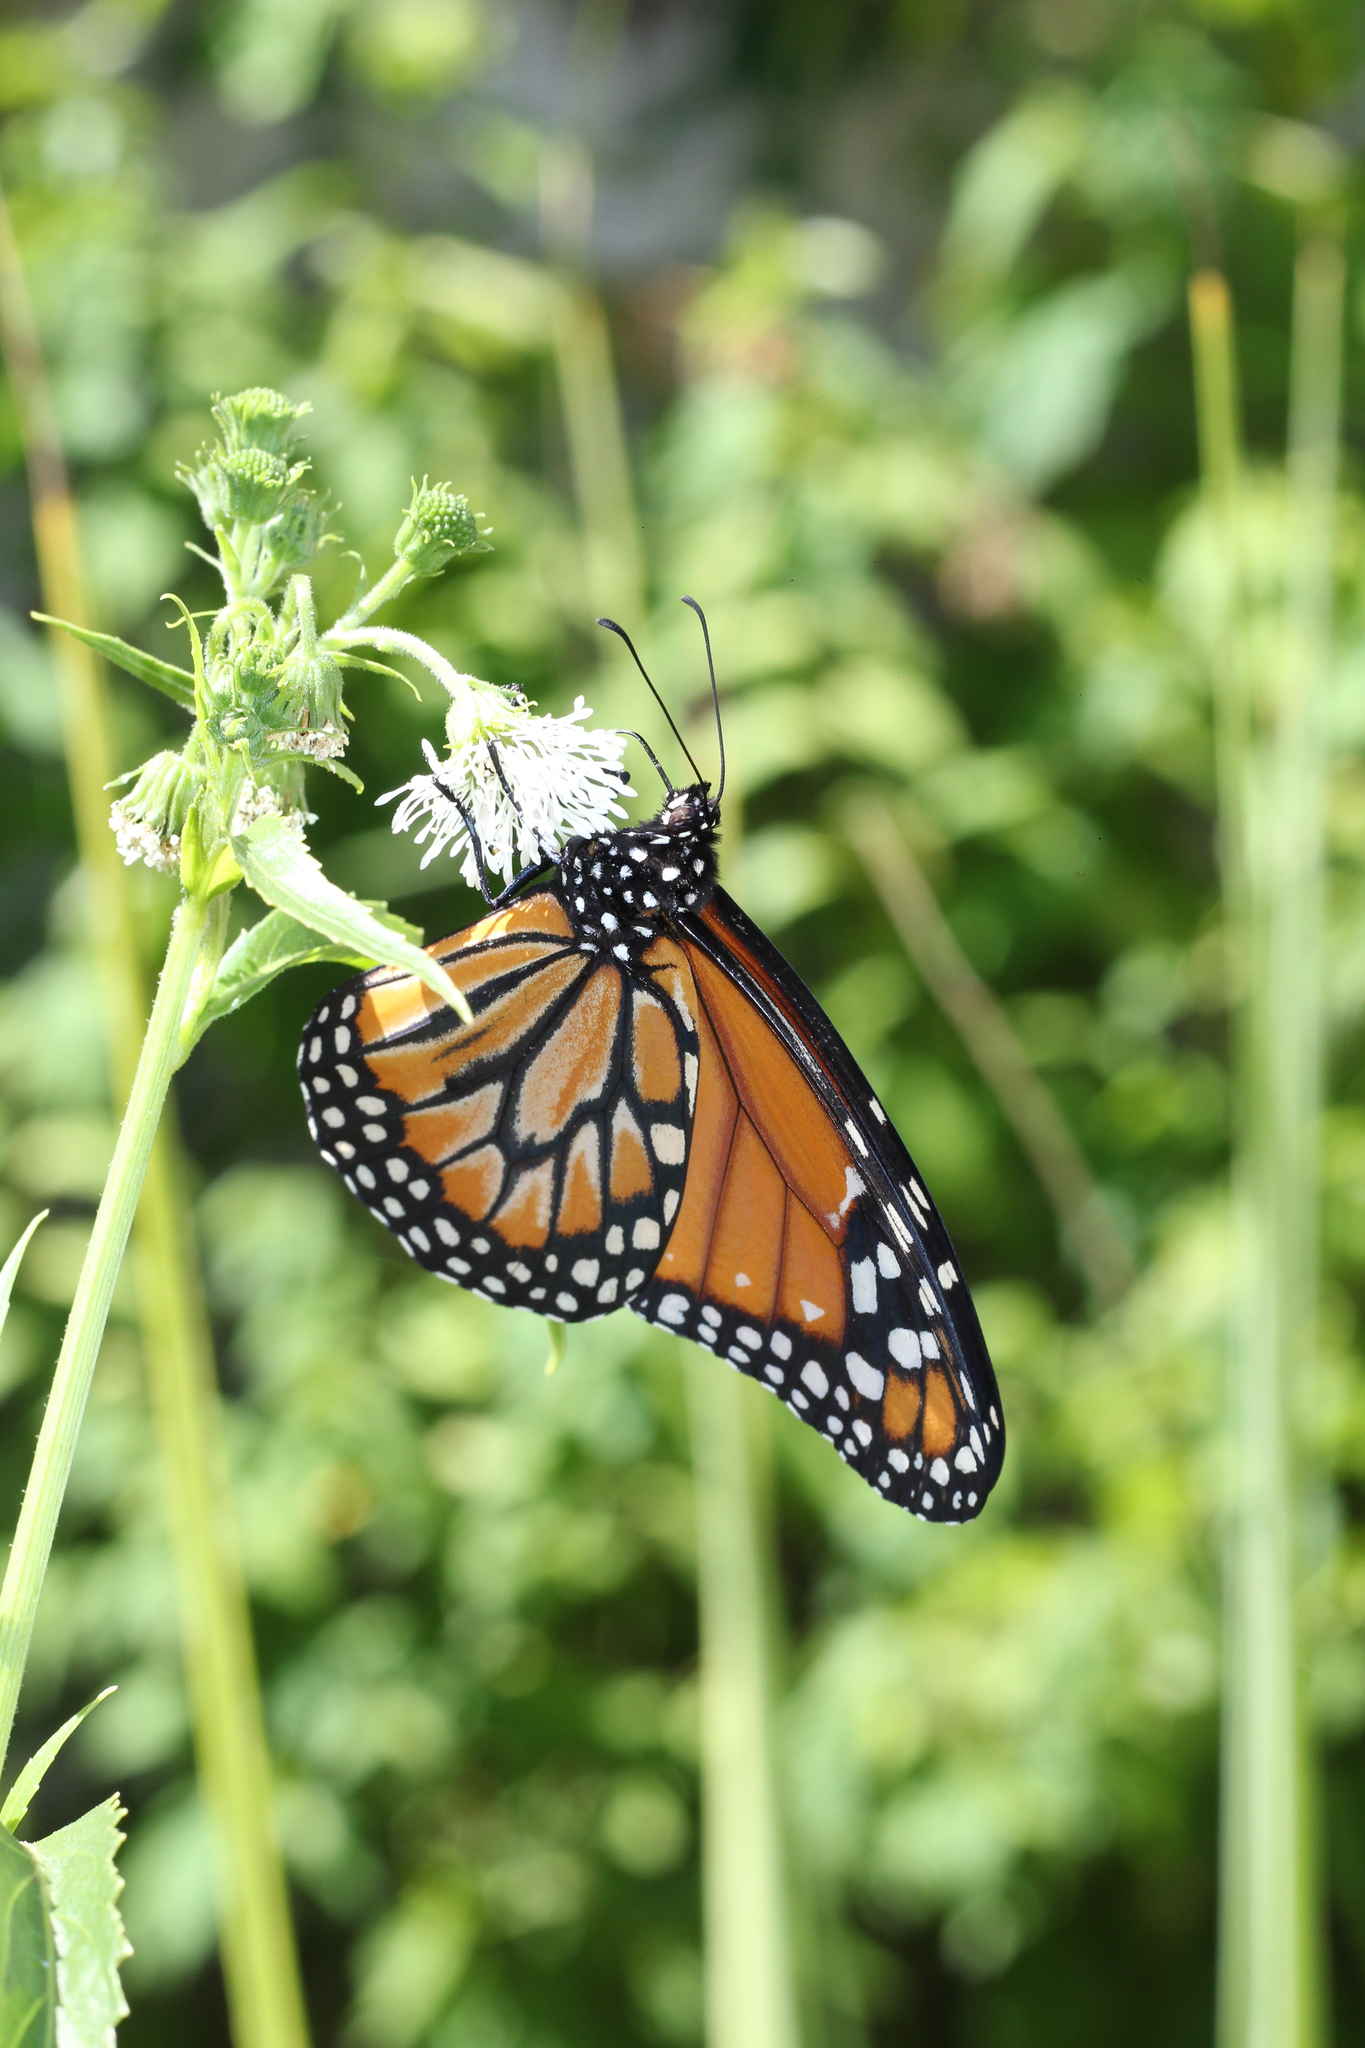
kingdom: Animalia
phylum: Arthropoda
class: Insecta
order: Lepidoptera
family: Nymphalidae
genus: Danaus
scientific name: Danaus erippus
